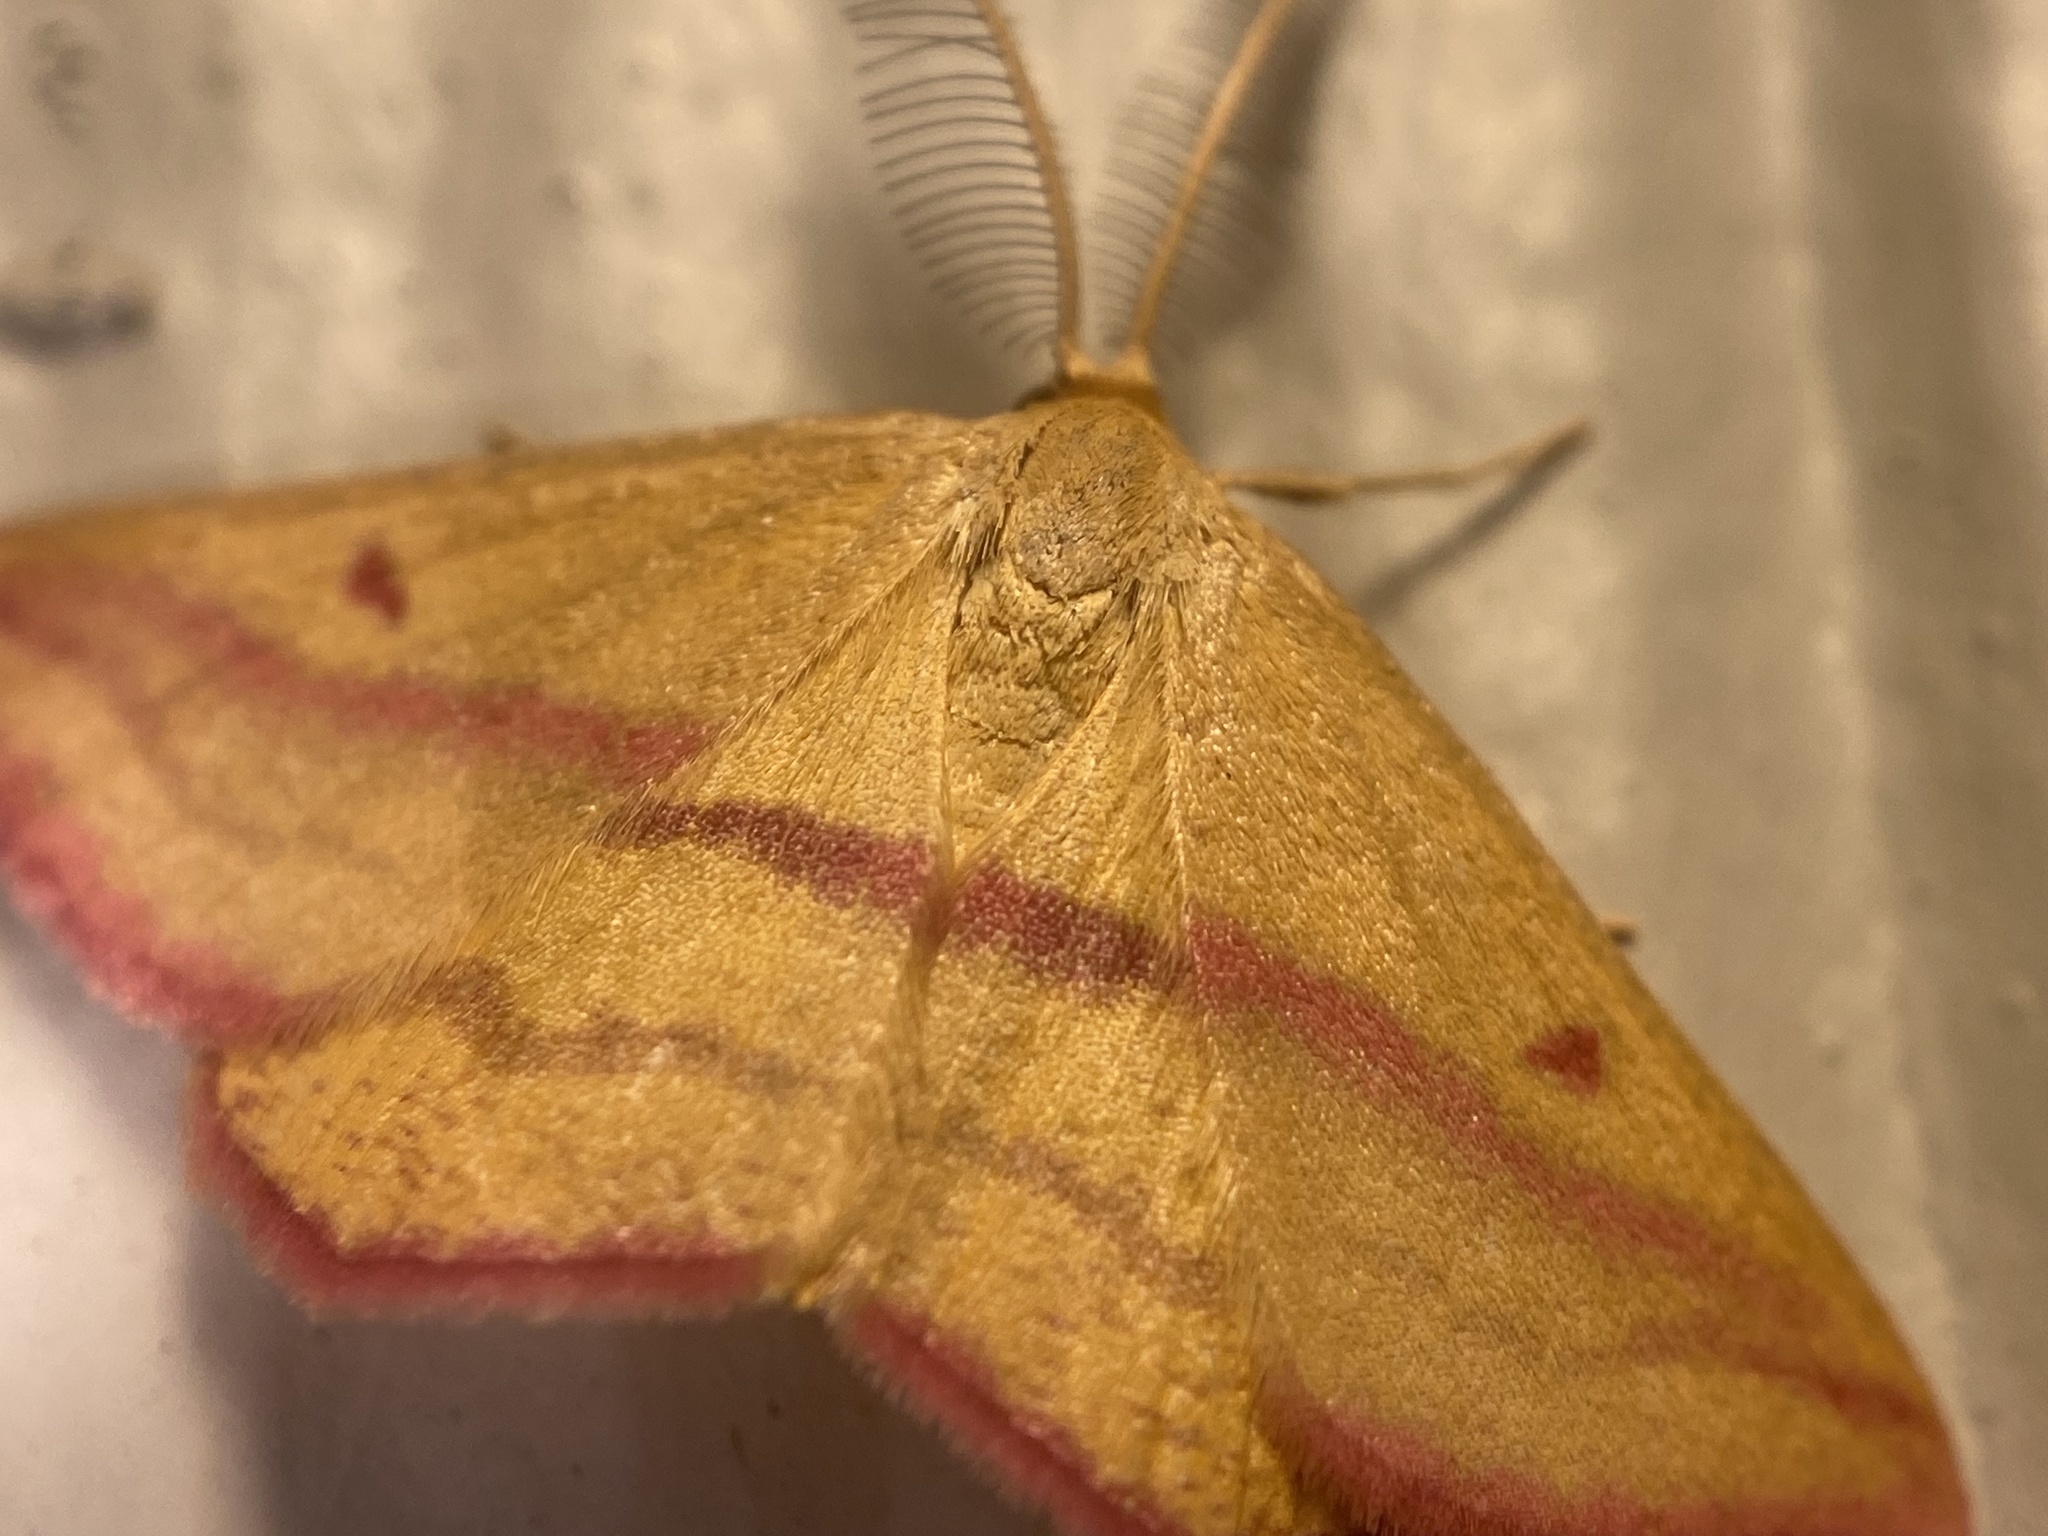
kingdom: Animalia
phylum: Arthropoda
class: Insecta
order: Lepidoptera
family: Geometridae
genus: Haematopis
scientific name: Haematopis grataria
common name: Chickweed geometer
